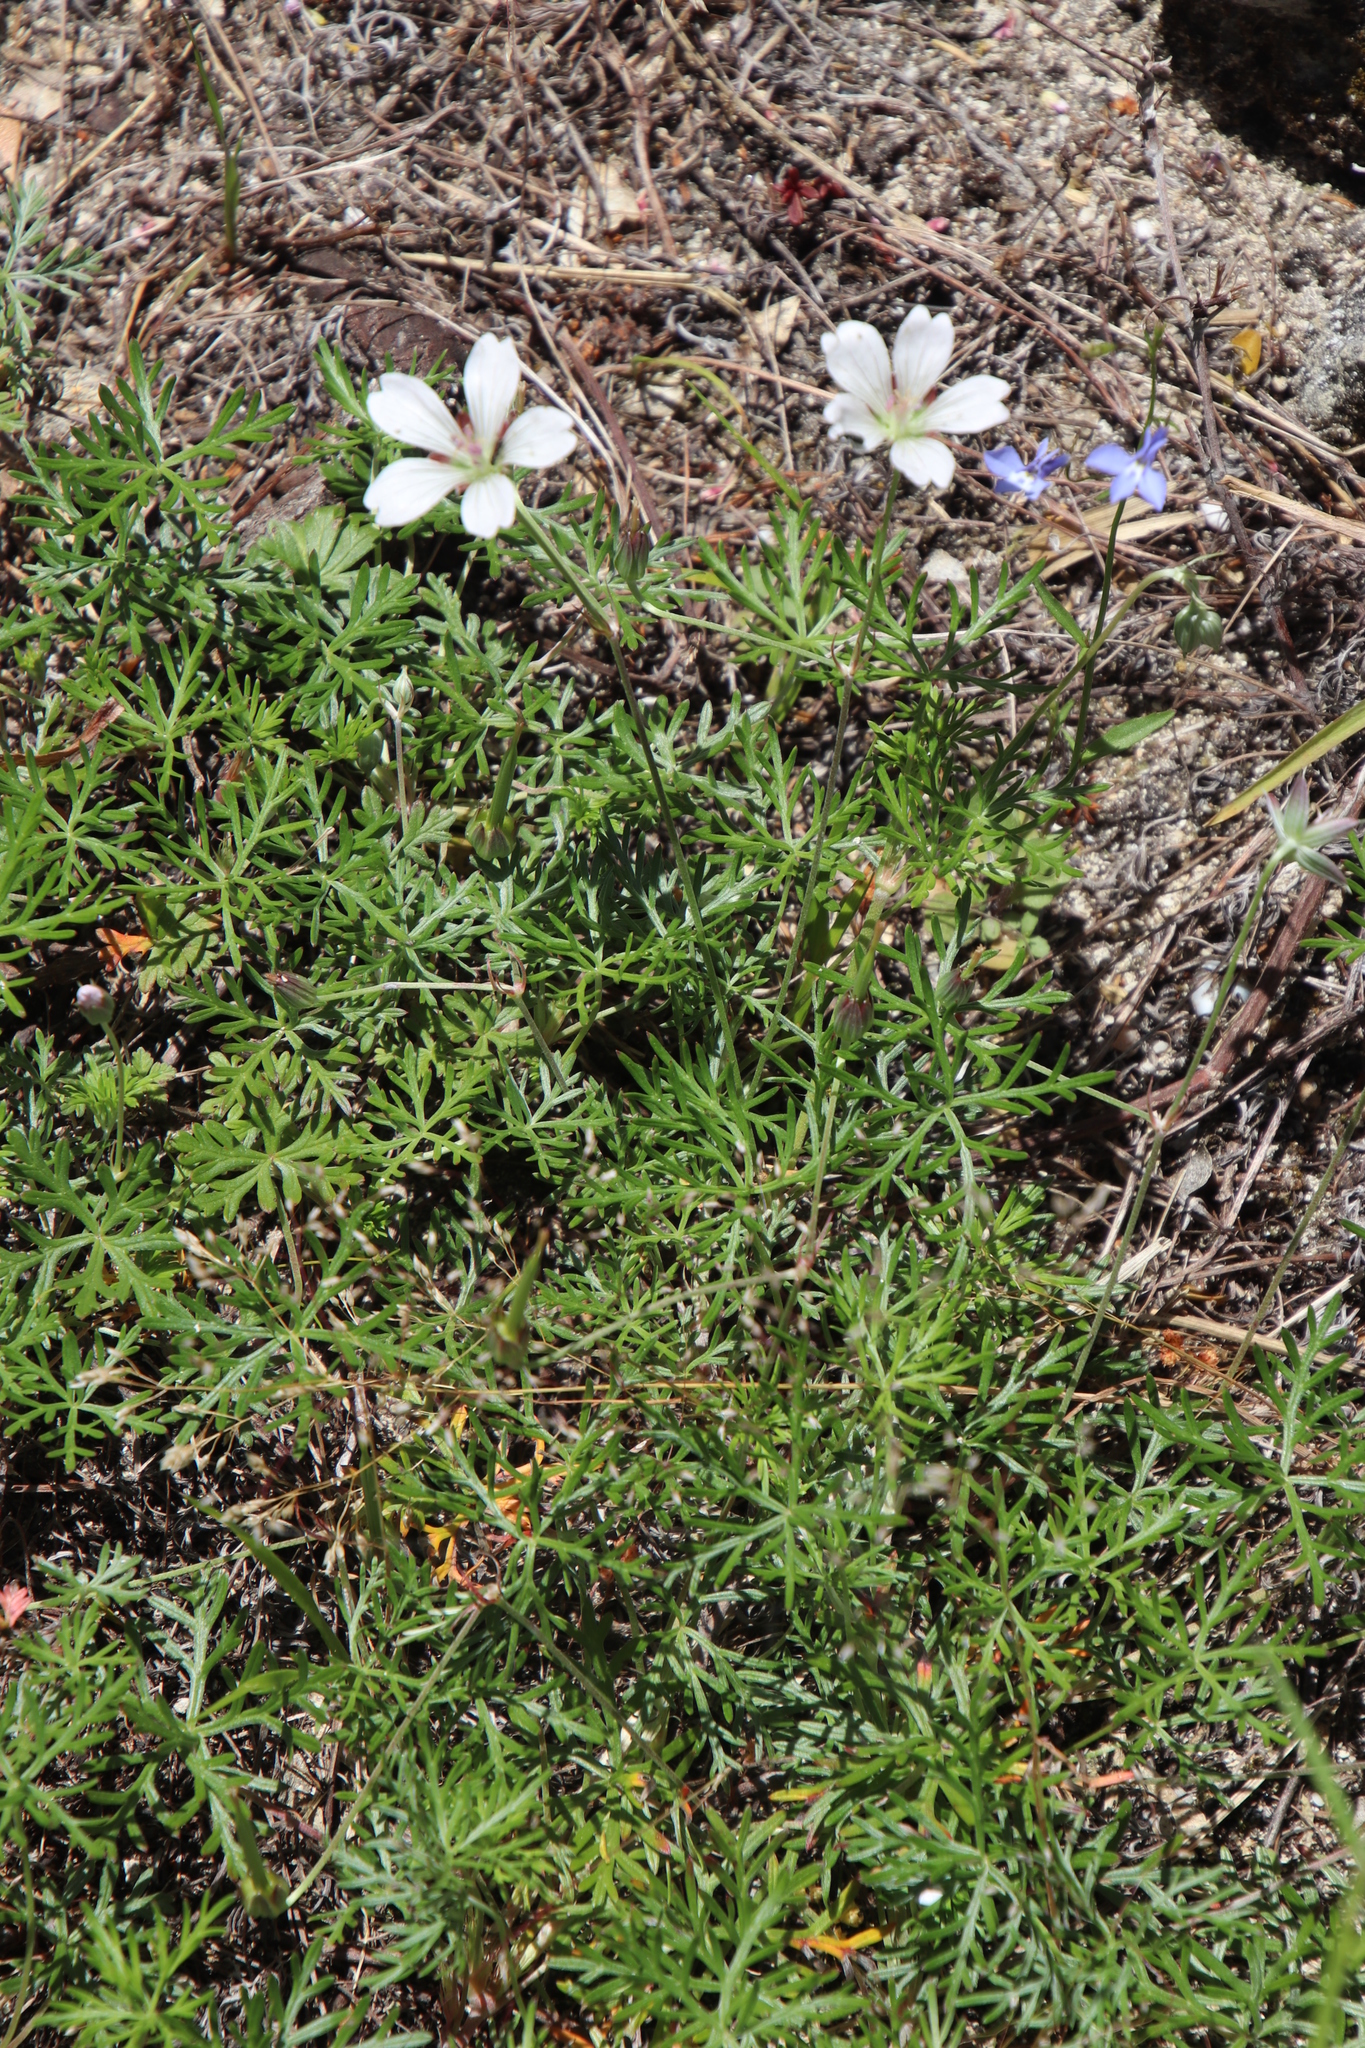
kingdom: Plantae
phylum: Tracheophyta
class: Magnoliopsida
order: Geraniales
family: Geraniaceae
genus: Geranium
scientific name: Geranium incanum
